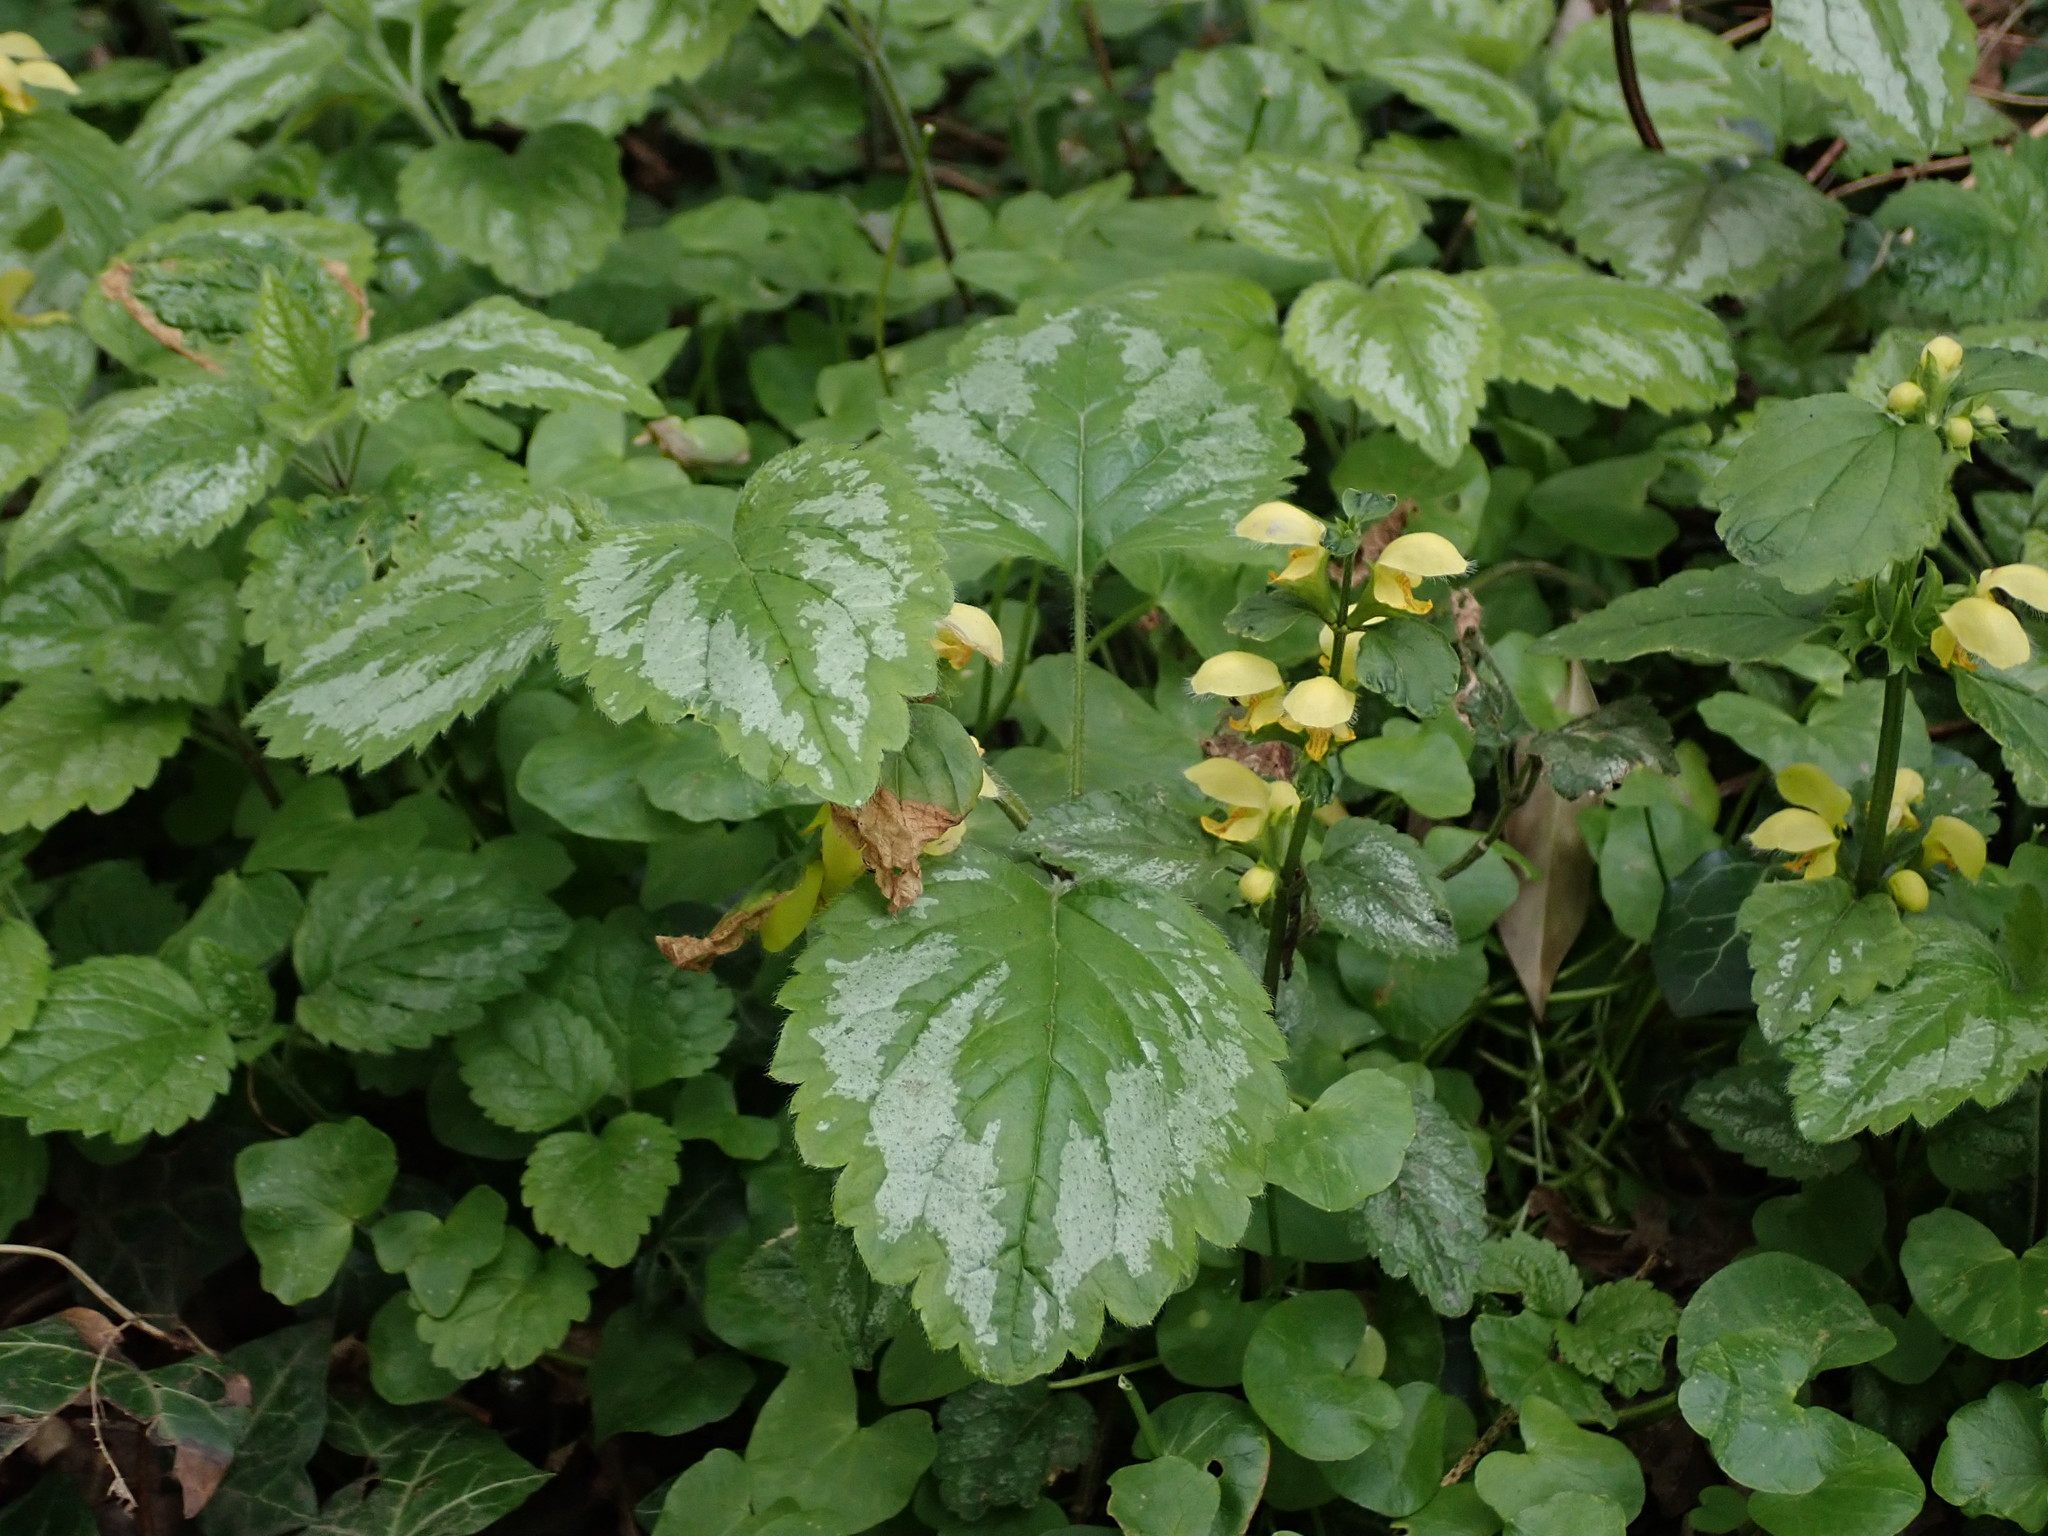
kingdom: Plantae
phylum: Tracheophyta
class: Magnoliopsida
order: Lamiales
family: Lamiaceae
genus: Lamium
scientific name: Lamium galeobdolon
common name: Yellow archangel
